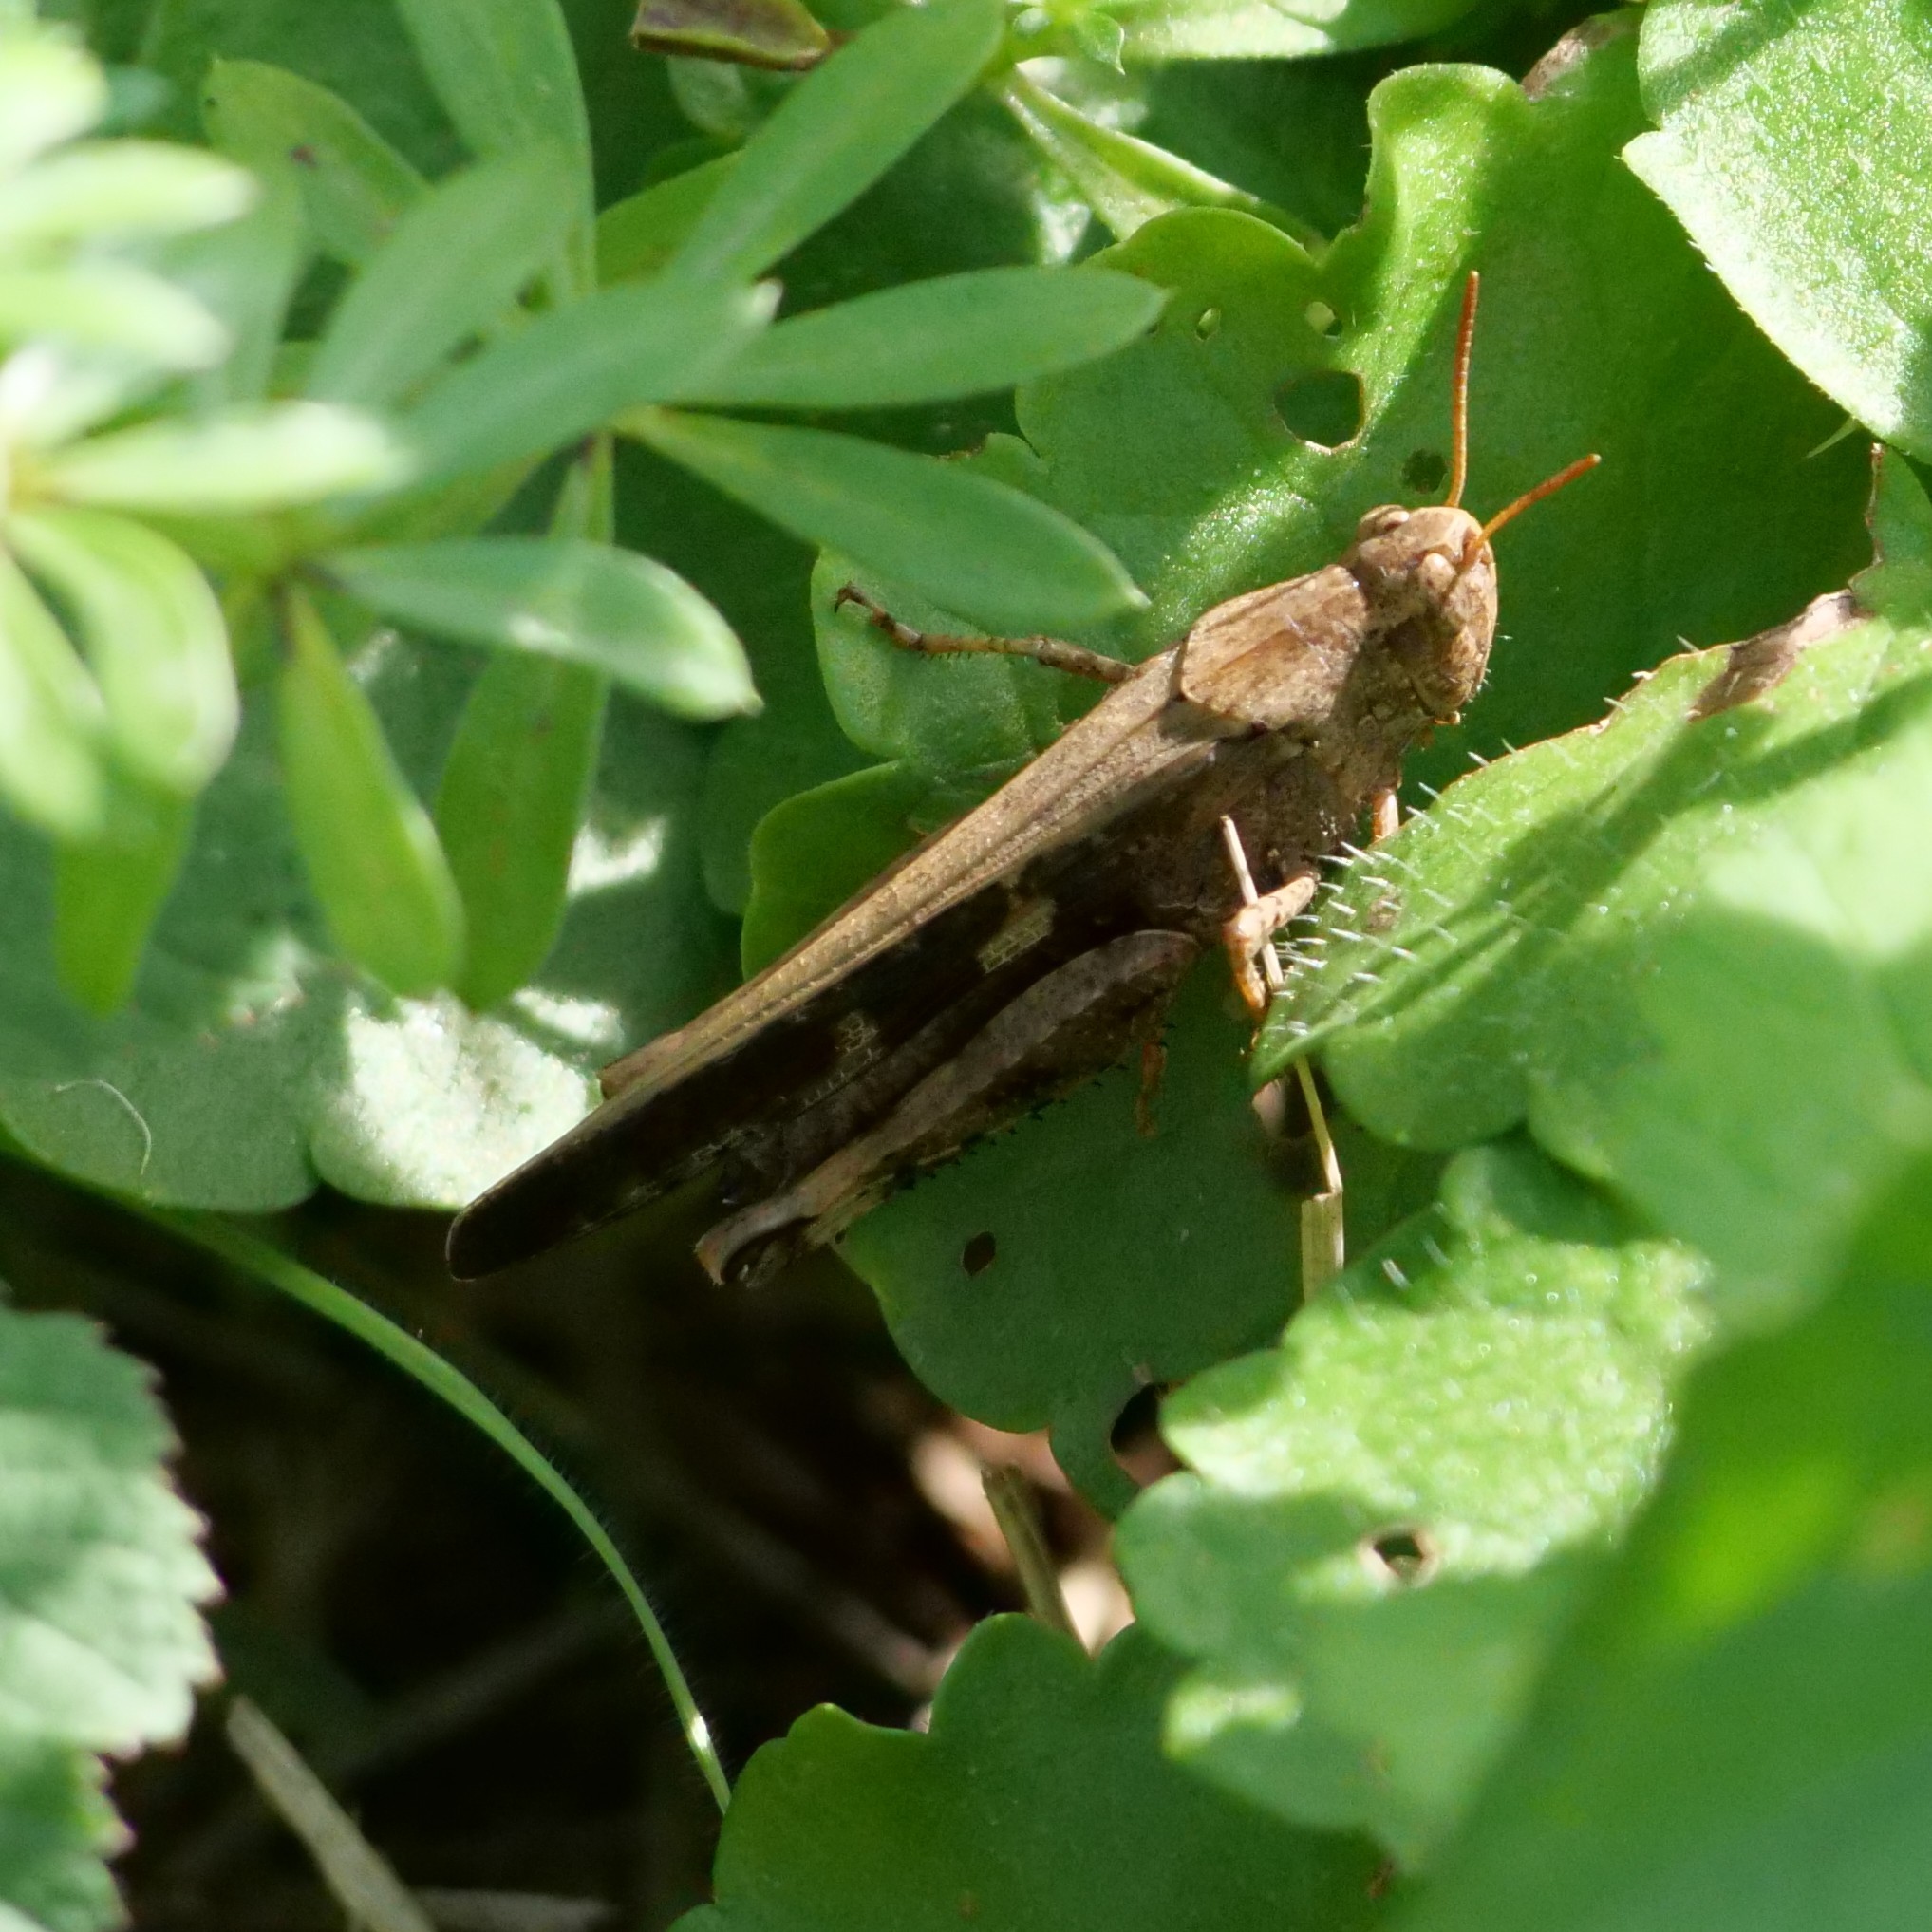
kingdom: Animalia
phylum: Arthropoda
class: Insecta
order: Orthoptera
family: Acrididae
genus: Aiolopus
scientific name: Aiolopus strepens
